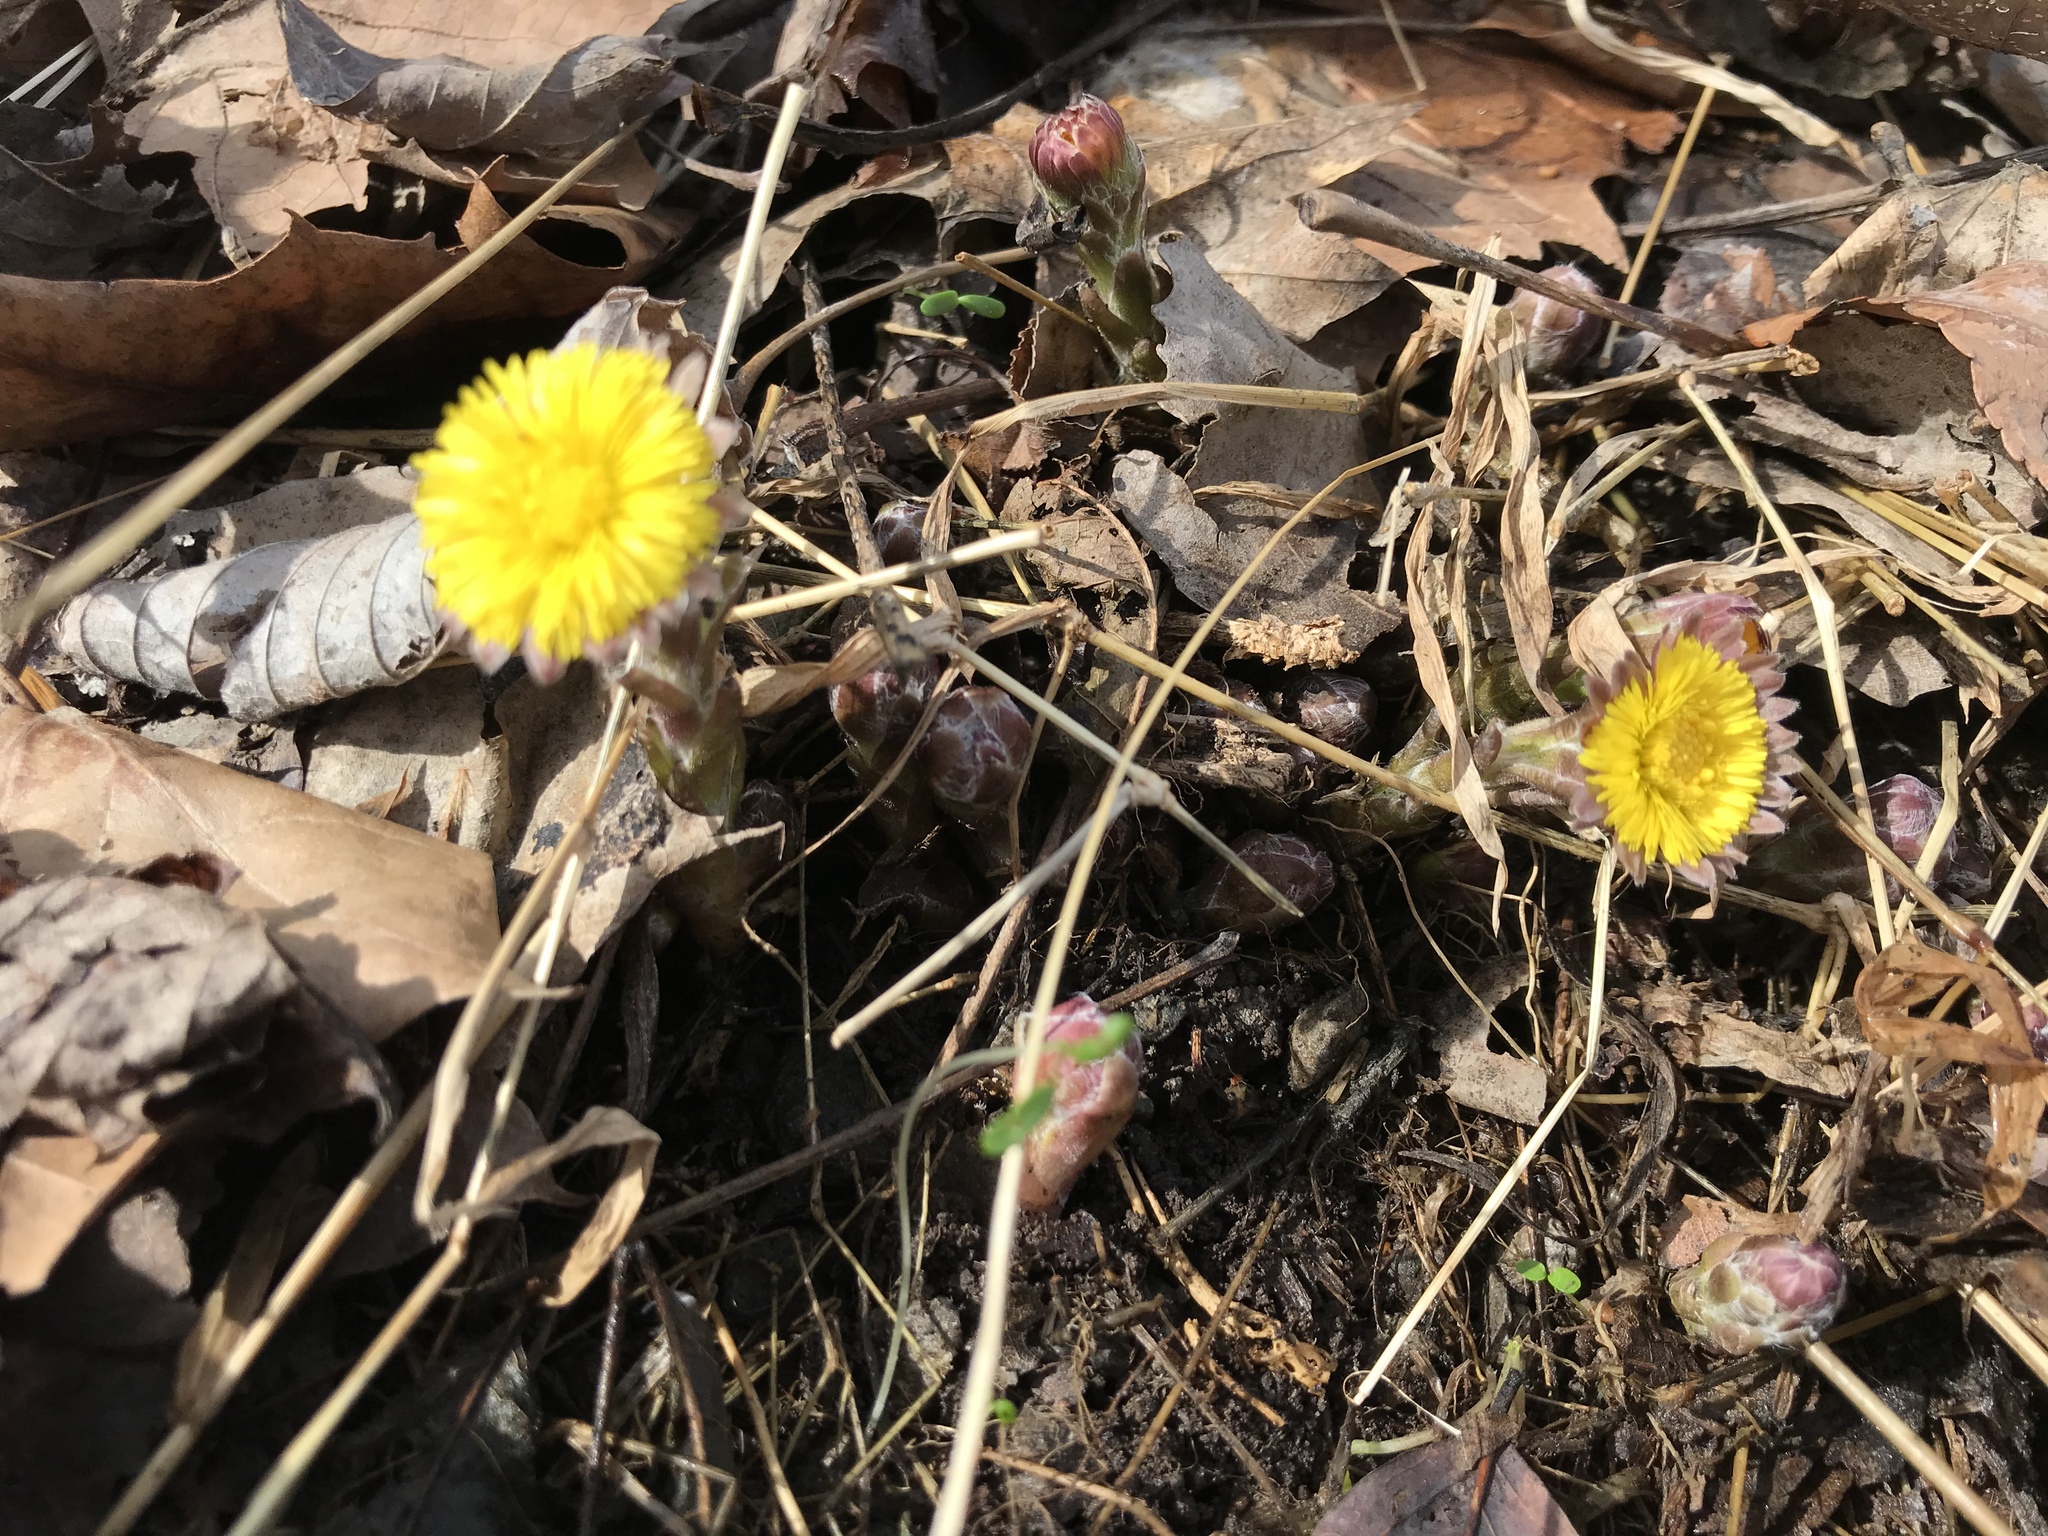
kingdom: Plantae
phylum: Tracheophyta
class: Magnoliopsida
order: Asterales
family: Asteraceae
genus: Tussilago
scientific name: Tussilago farfara
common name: Coltsfoot
